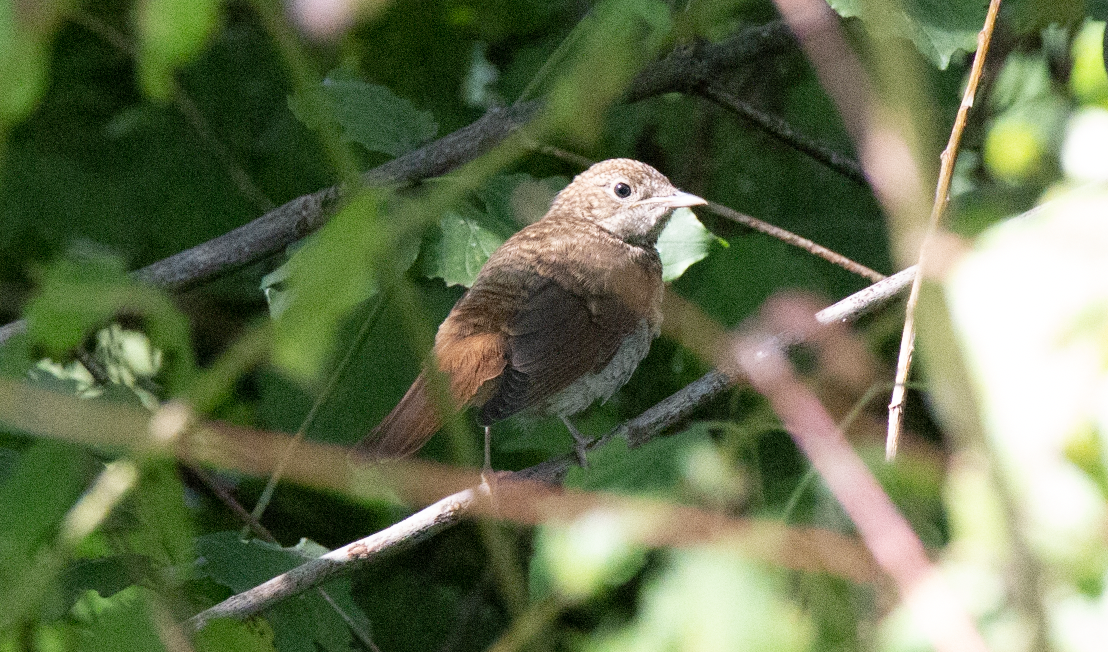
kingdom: Animalia
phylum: Chordata
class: Aves
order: Passeriformes
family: Muscicapidae
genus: Luscinia
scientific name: Luscinia megarhynchos
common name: Common nightingale
